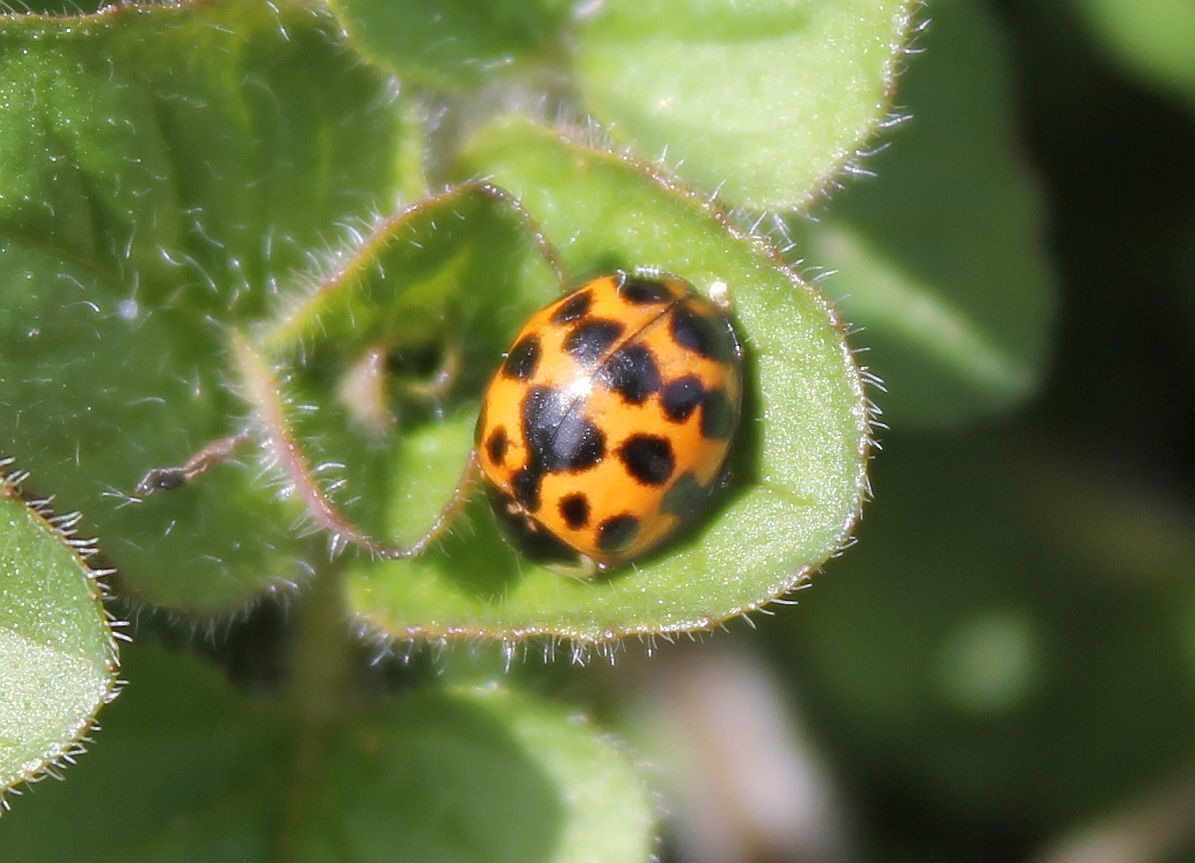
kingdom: Animalia
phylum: Arthropoda
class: Insecta
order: Coleoptera
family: Coccinellidae
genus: Harmonia
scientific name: Harmonia axyridis
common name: Harlequin ladybird
